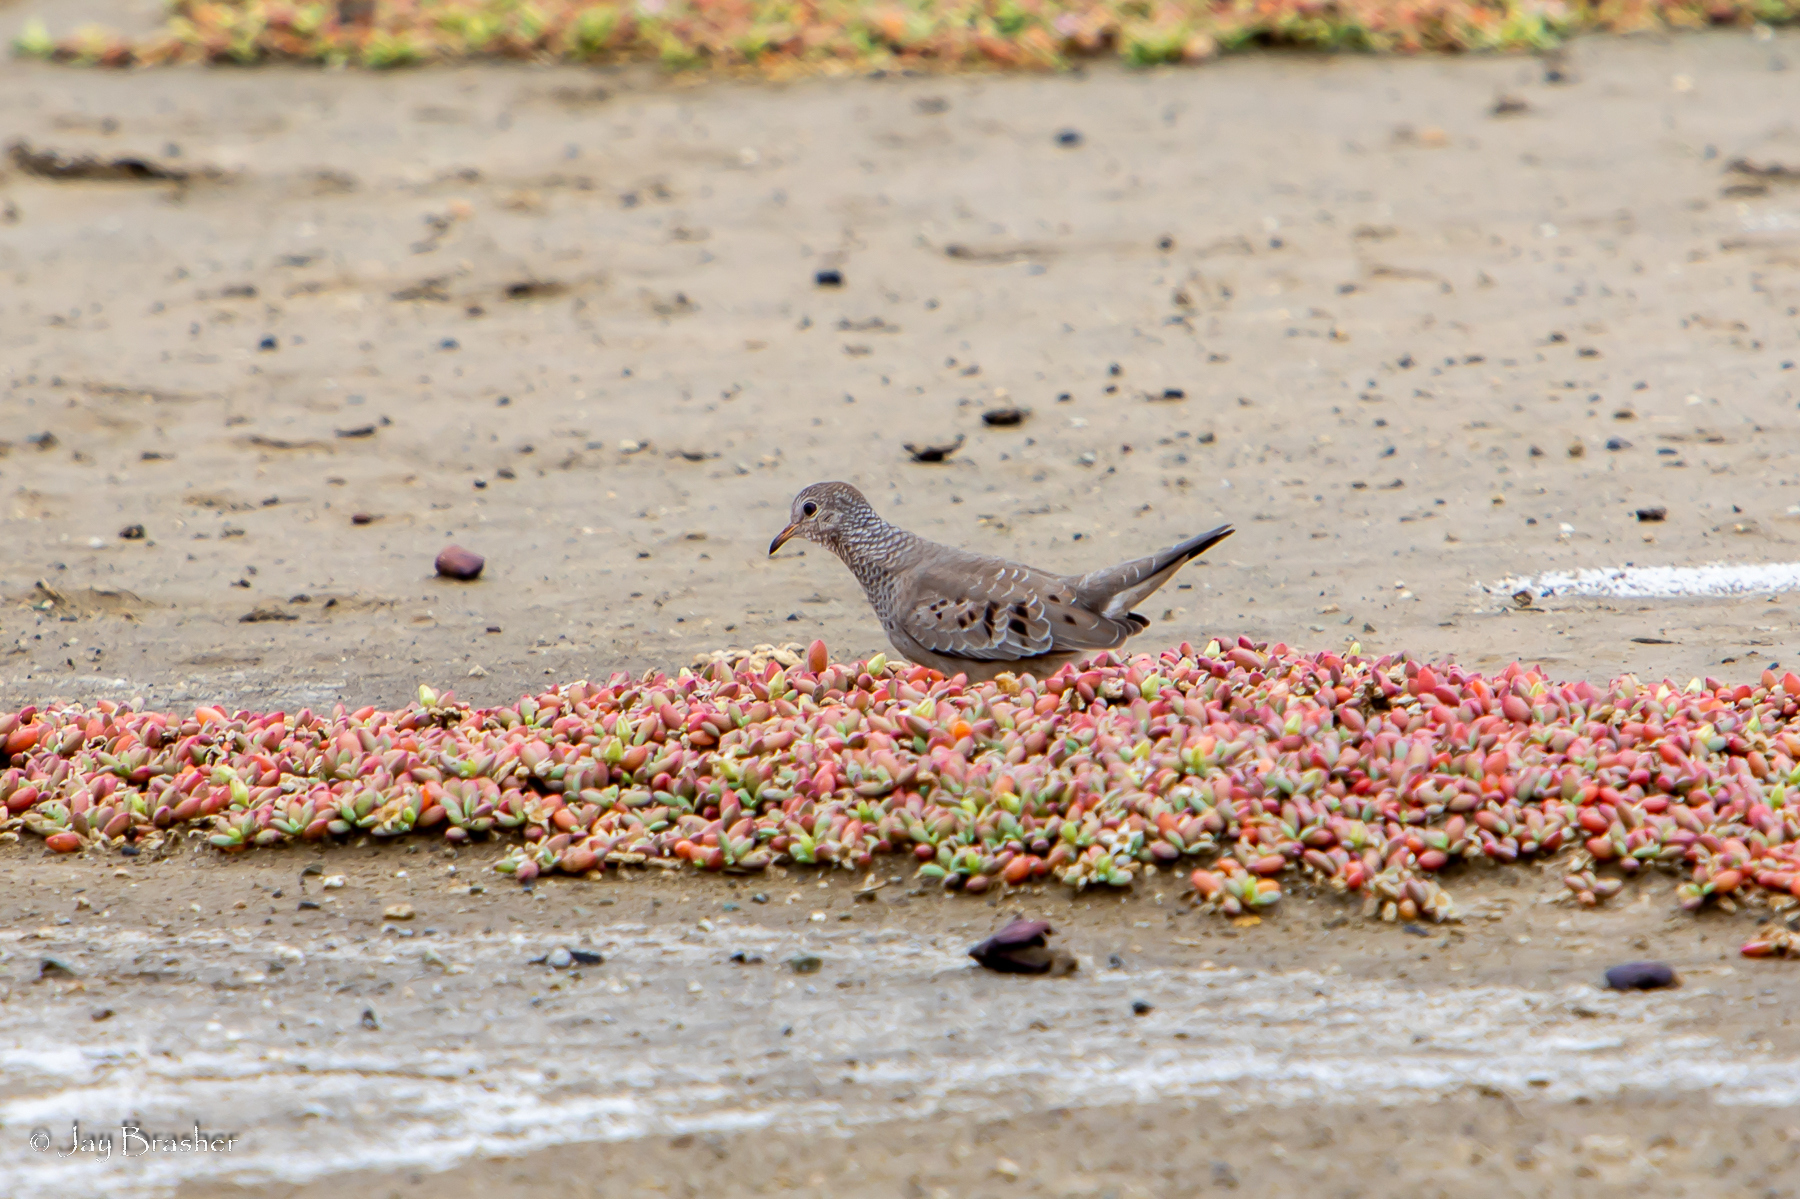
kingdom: Animalia
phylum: Chordata
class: Aves
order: Columbiformes
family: Columbidae
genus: Columbina
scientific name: Columbina passerina
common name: Common ground-dove
